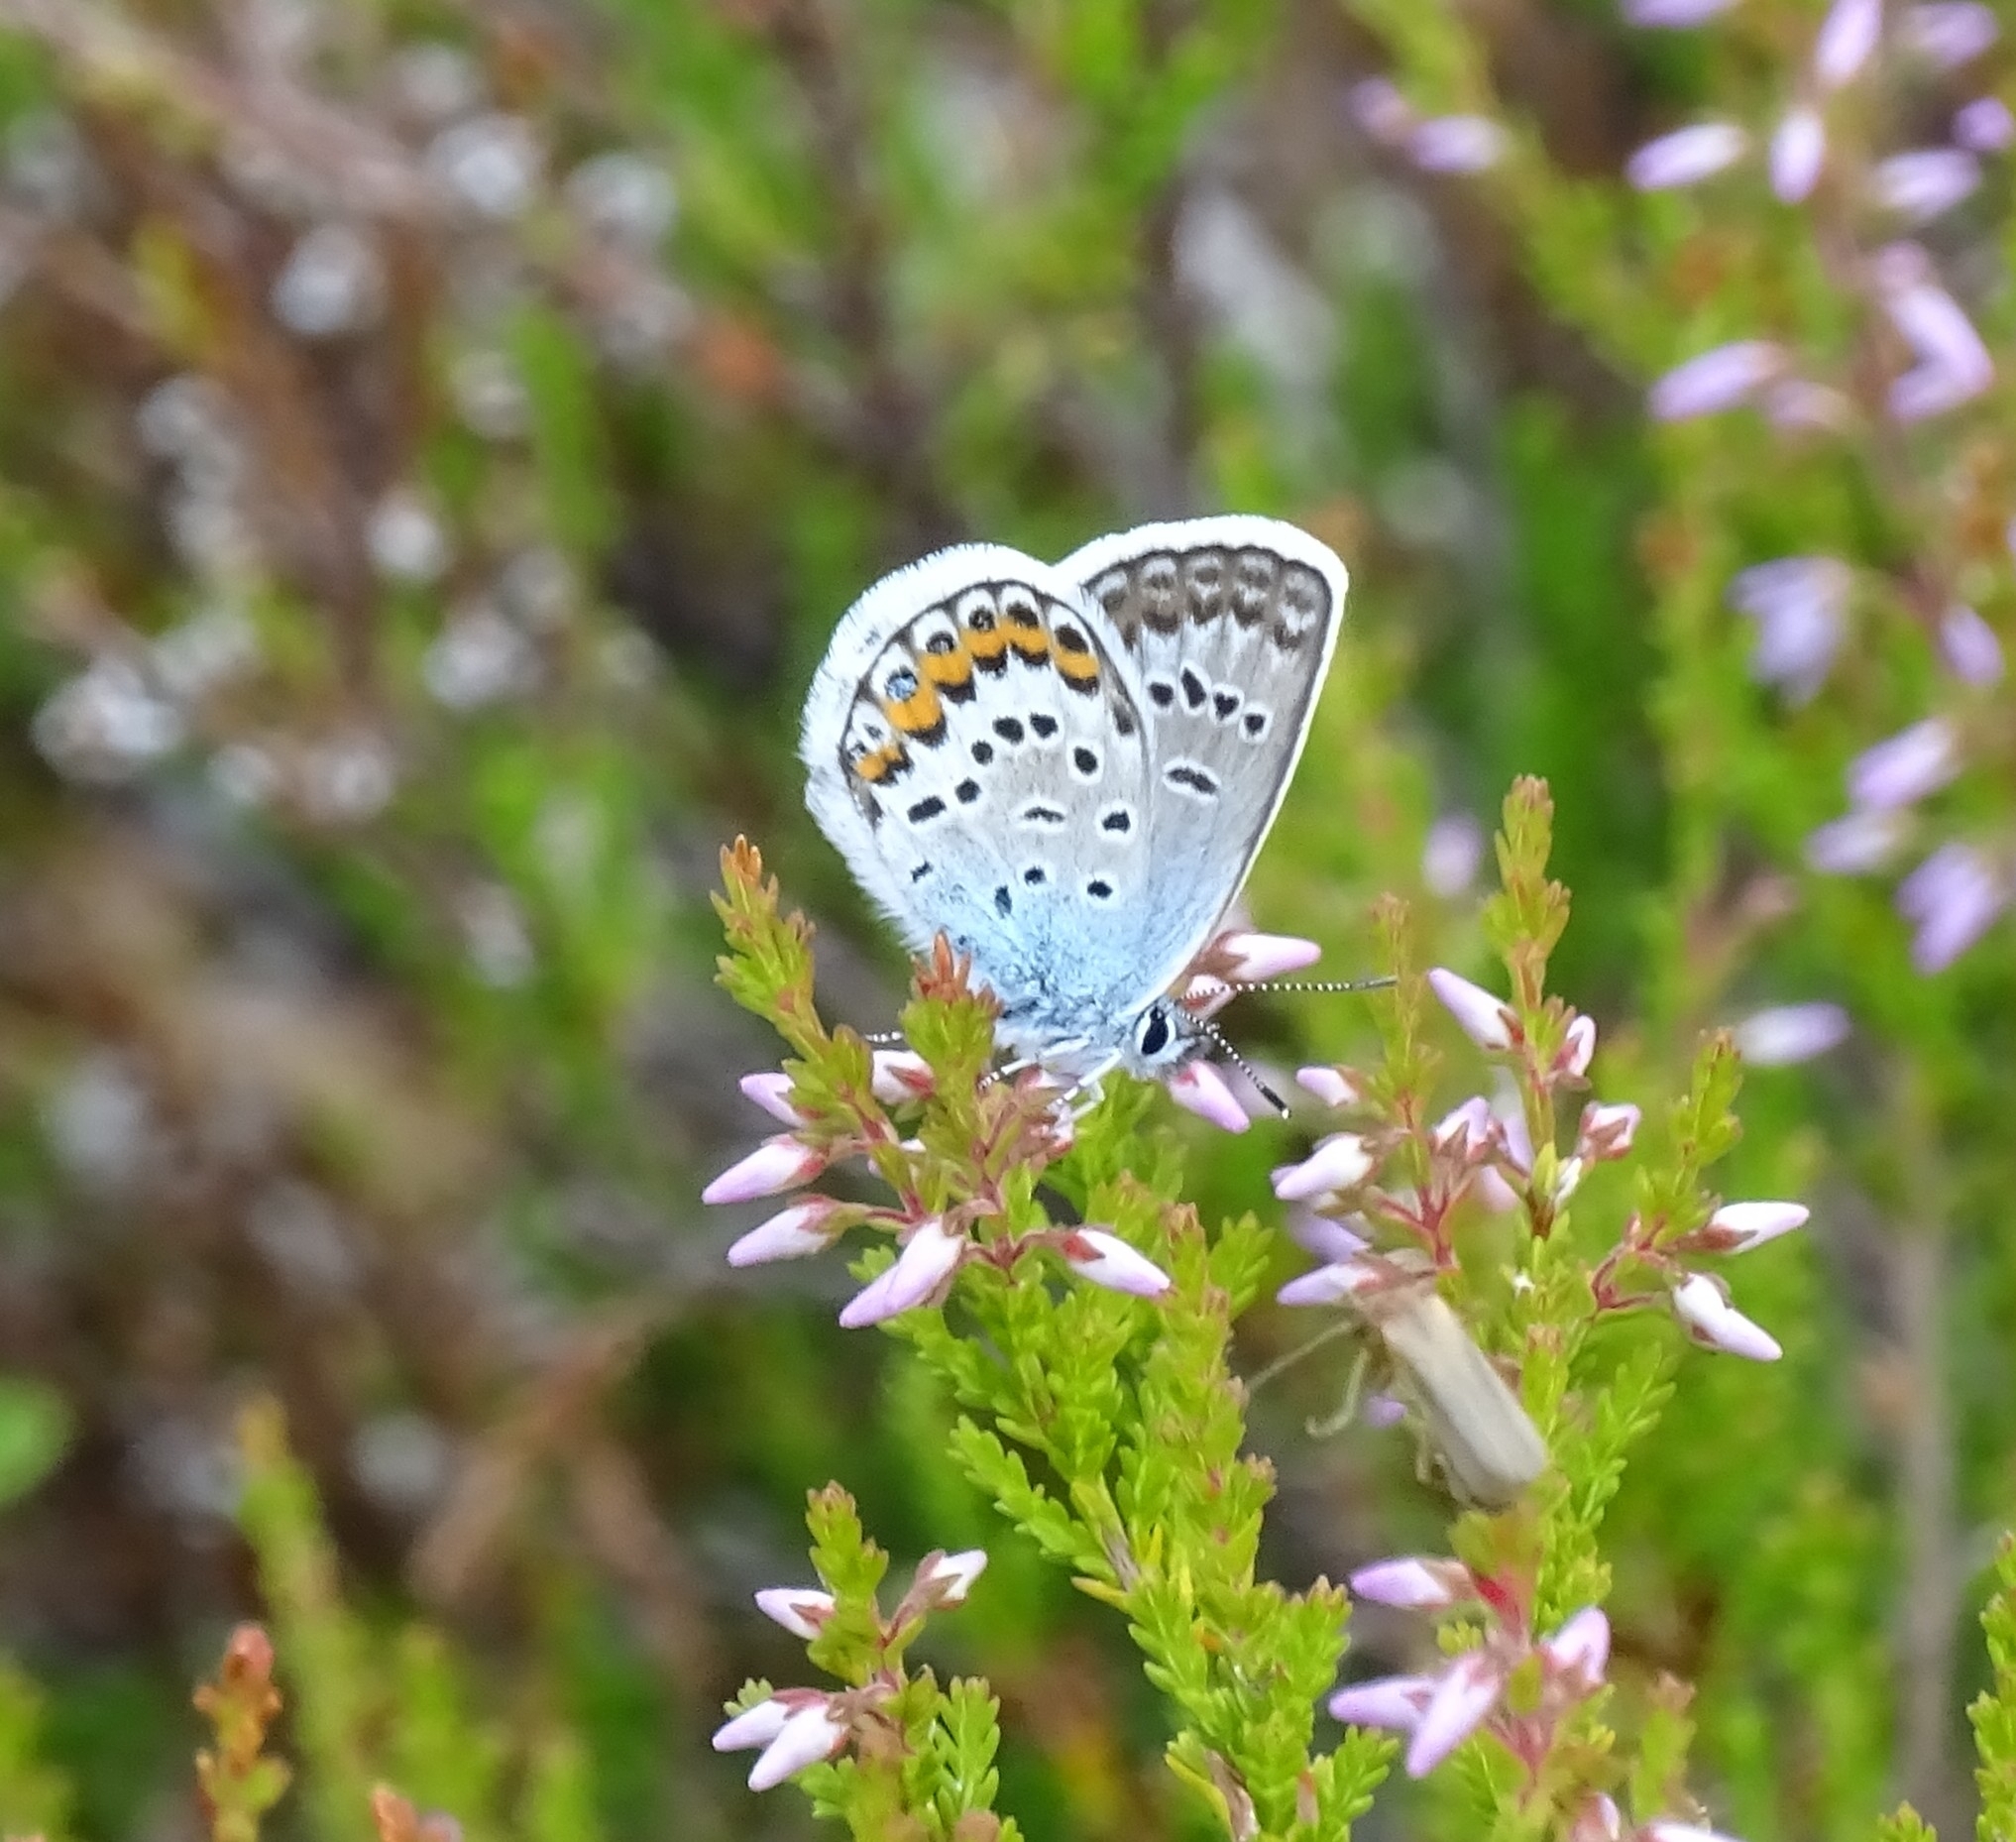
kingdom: Animalia
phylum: Arthropoda
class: Insecta
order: Lepidoptera
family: Lycaenidae
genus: Plebejus
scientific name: Plebejus argus
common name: Silver-studded blue
